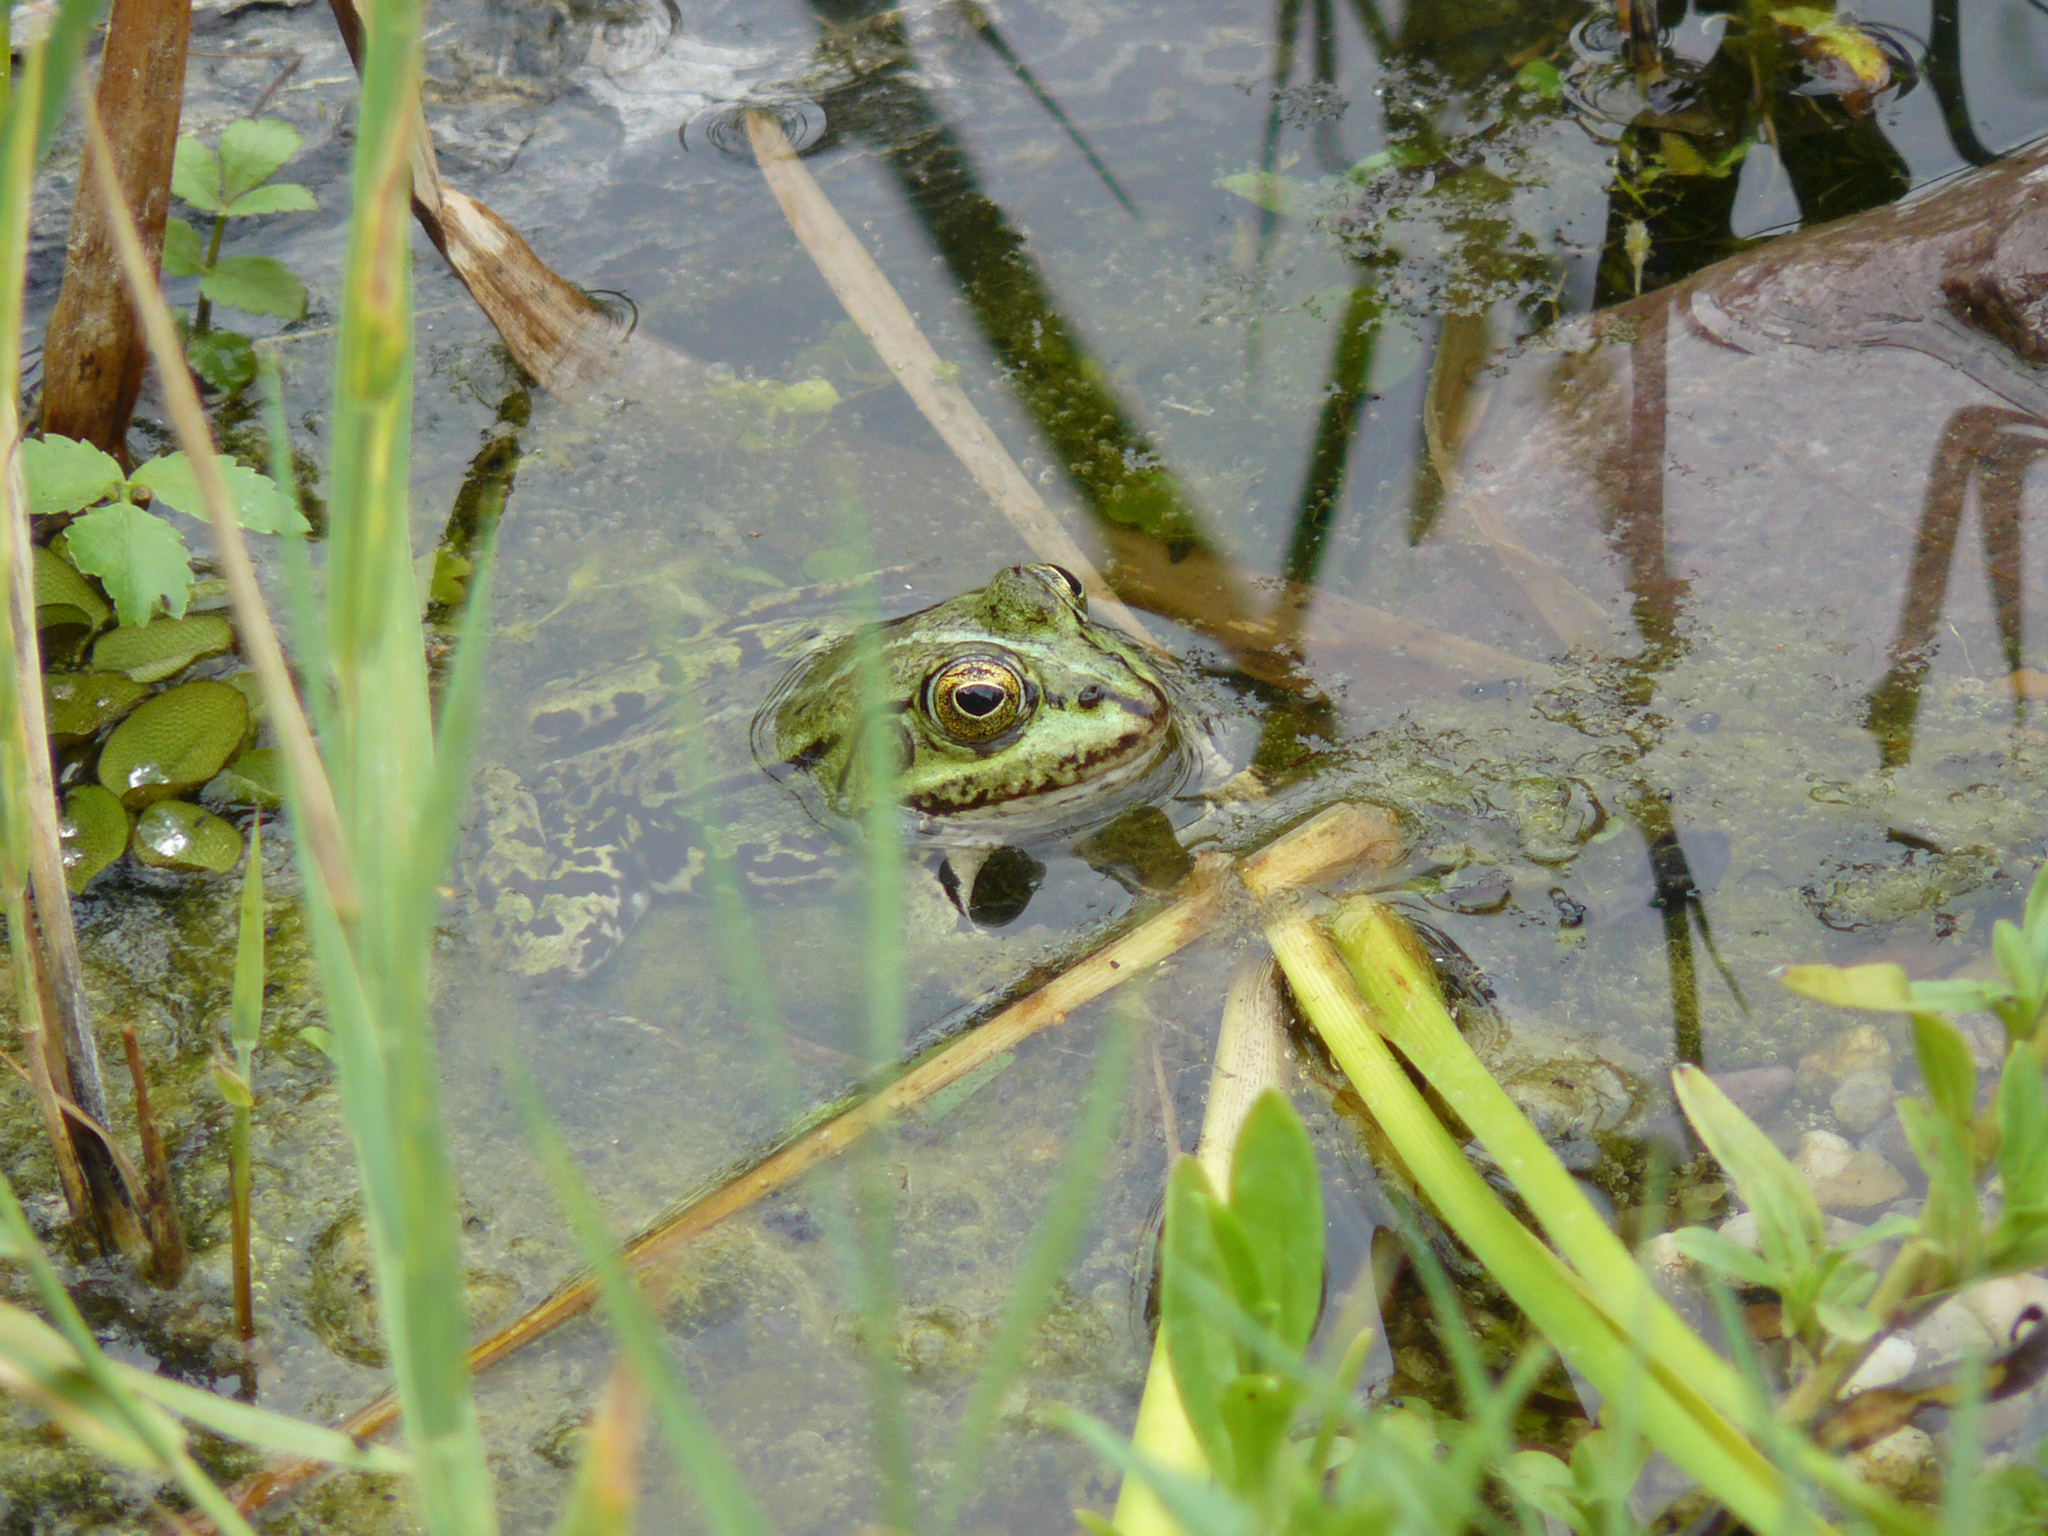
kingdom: Animalia
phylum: Chordata
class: Amphibia
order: Anura
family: Ranidae
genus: Pelophylax
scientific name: Pelophylax
